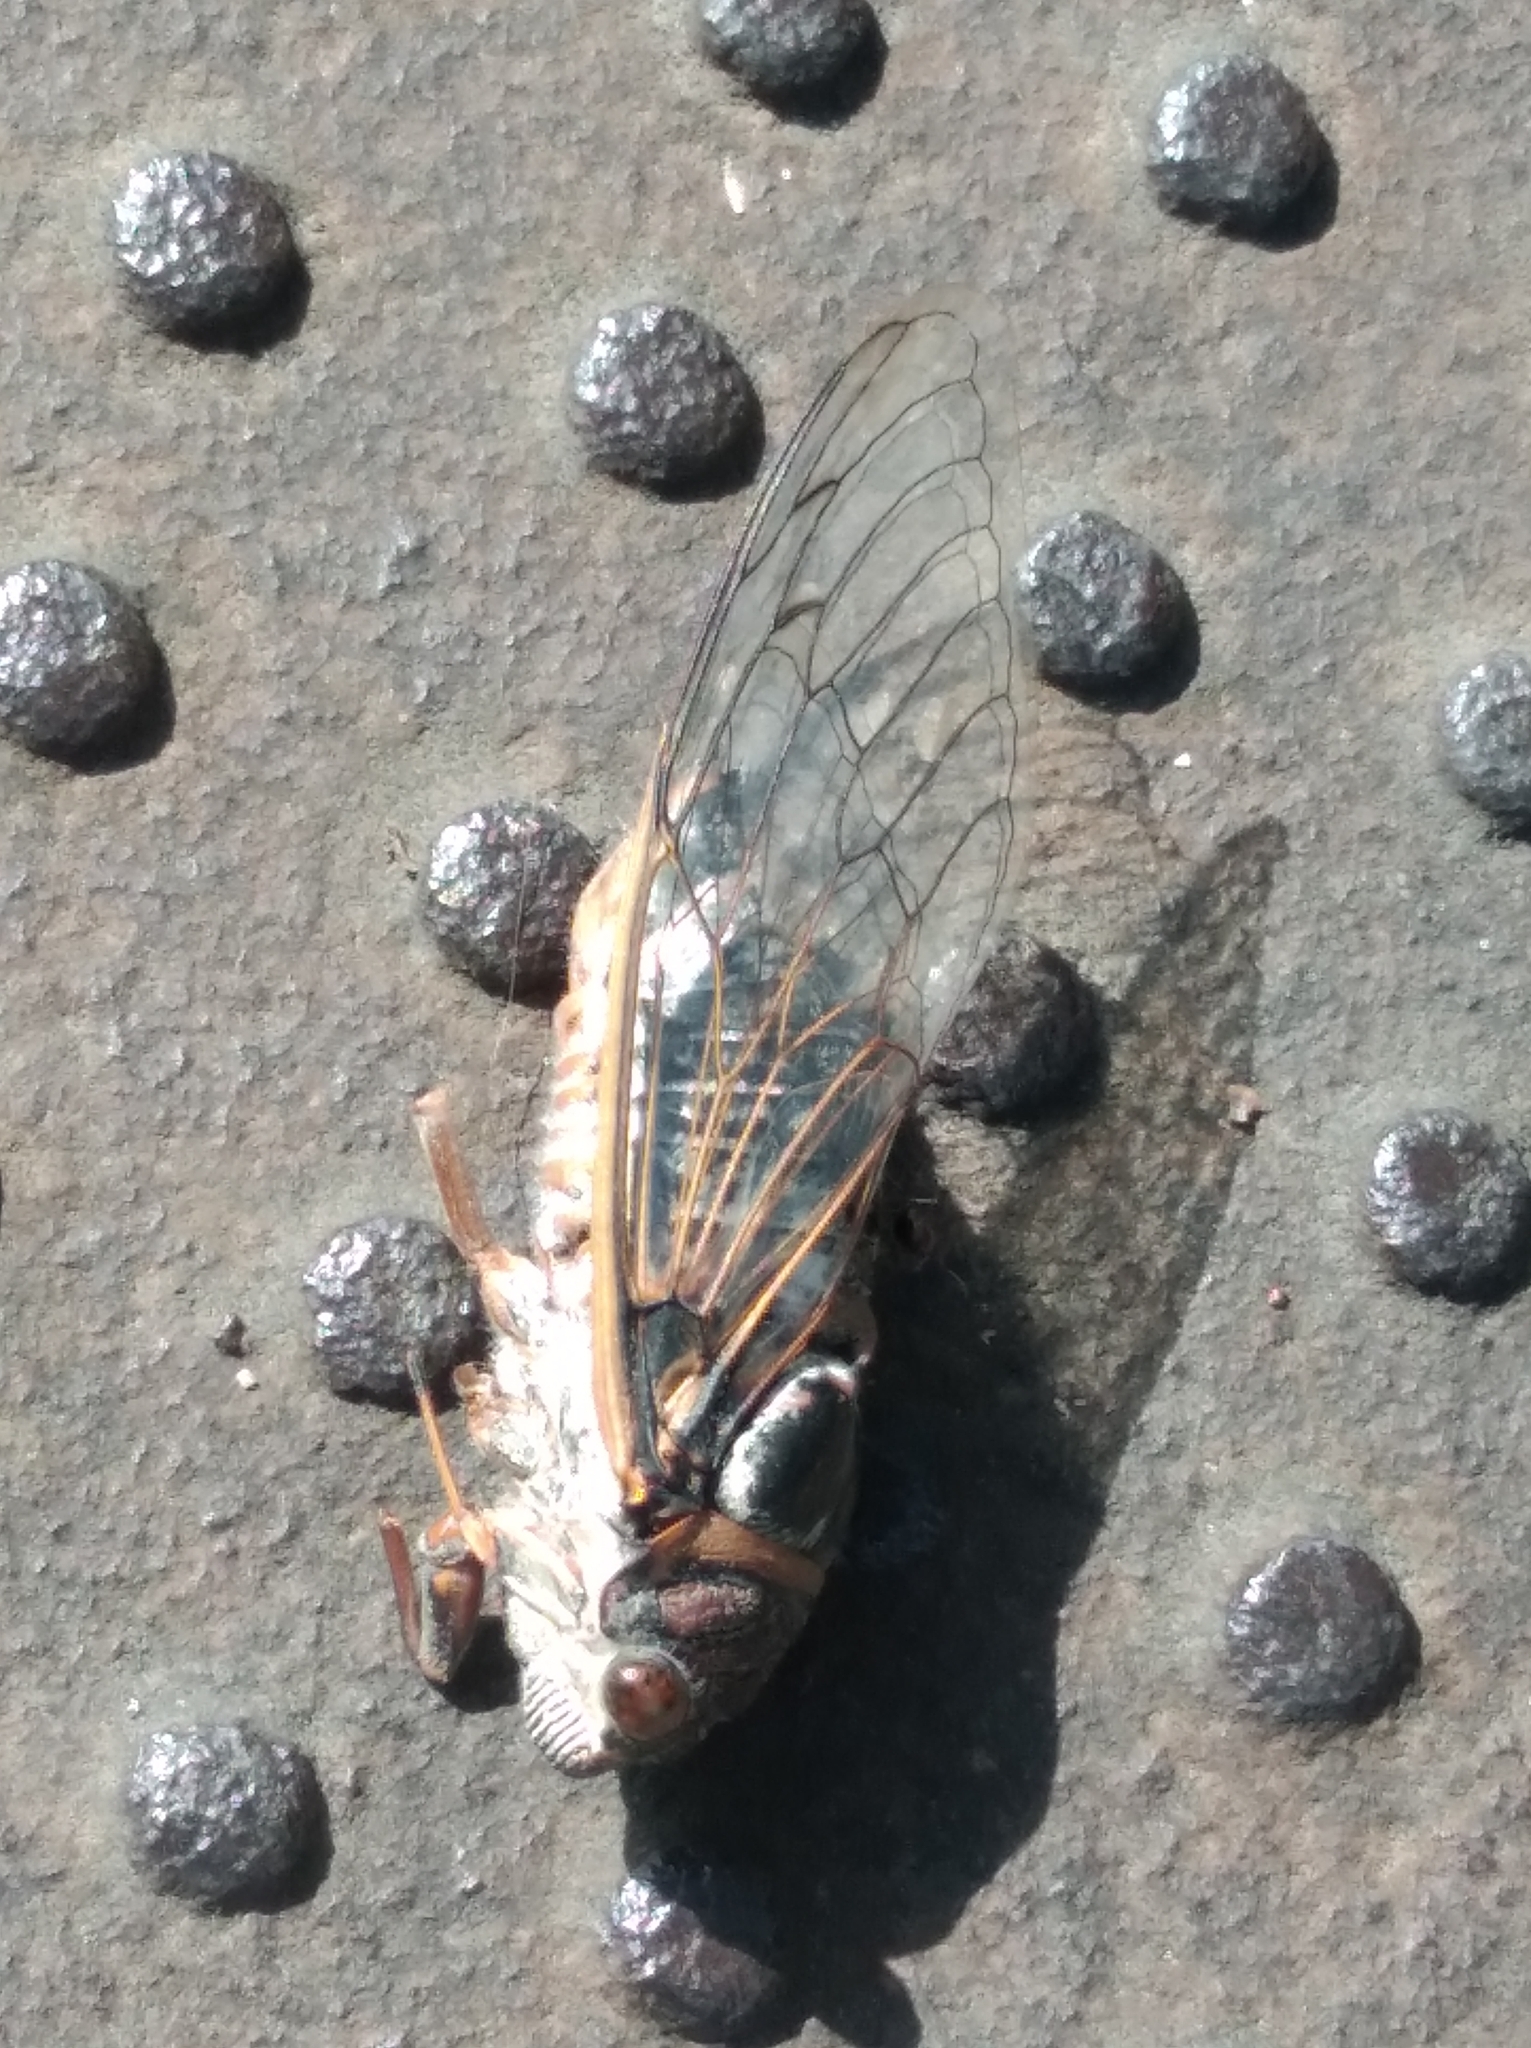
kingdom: Animalia
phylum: Arthropoda
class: Insecta
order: Hemiptera
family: Cicadidae
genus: Lyristes
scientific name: Lyristes plebejus
